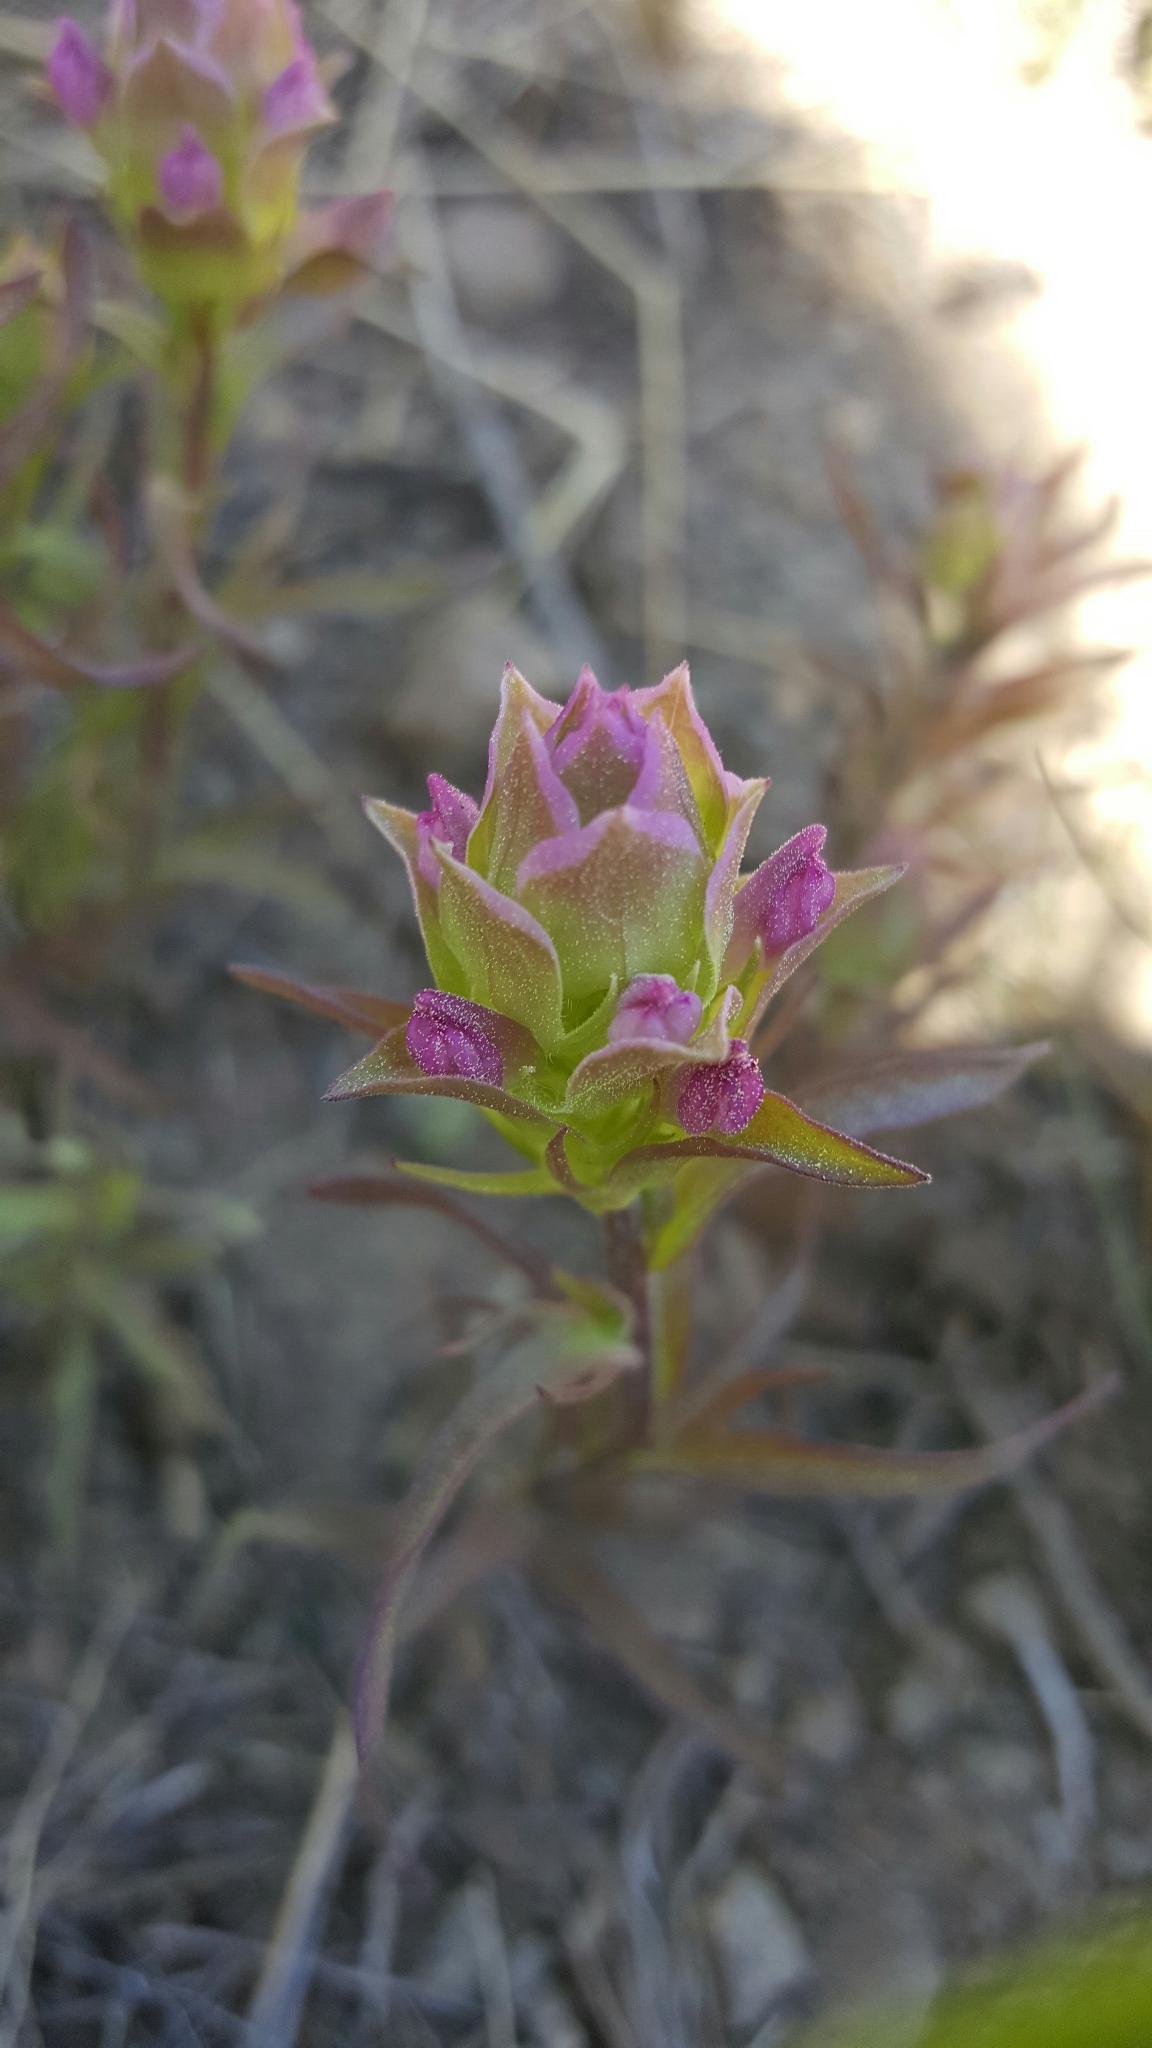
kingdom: Plantae
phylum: Tracheophyta
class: Magnoliopsida
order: Lamiales
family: Orobanchaceae
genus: Orthocarpus
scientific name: Orthocarpus cuspidatus
